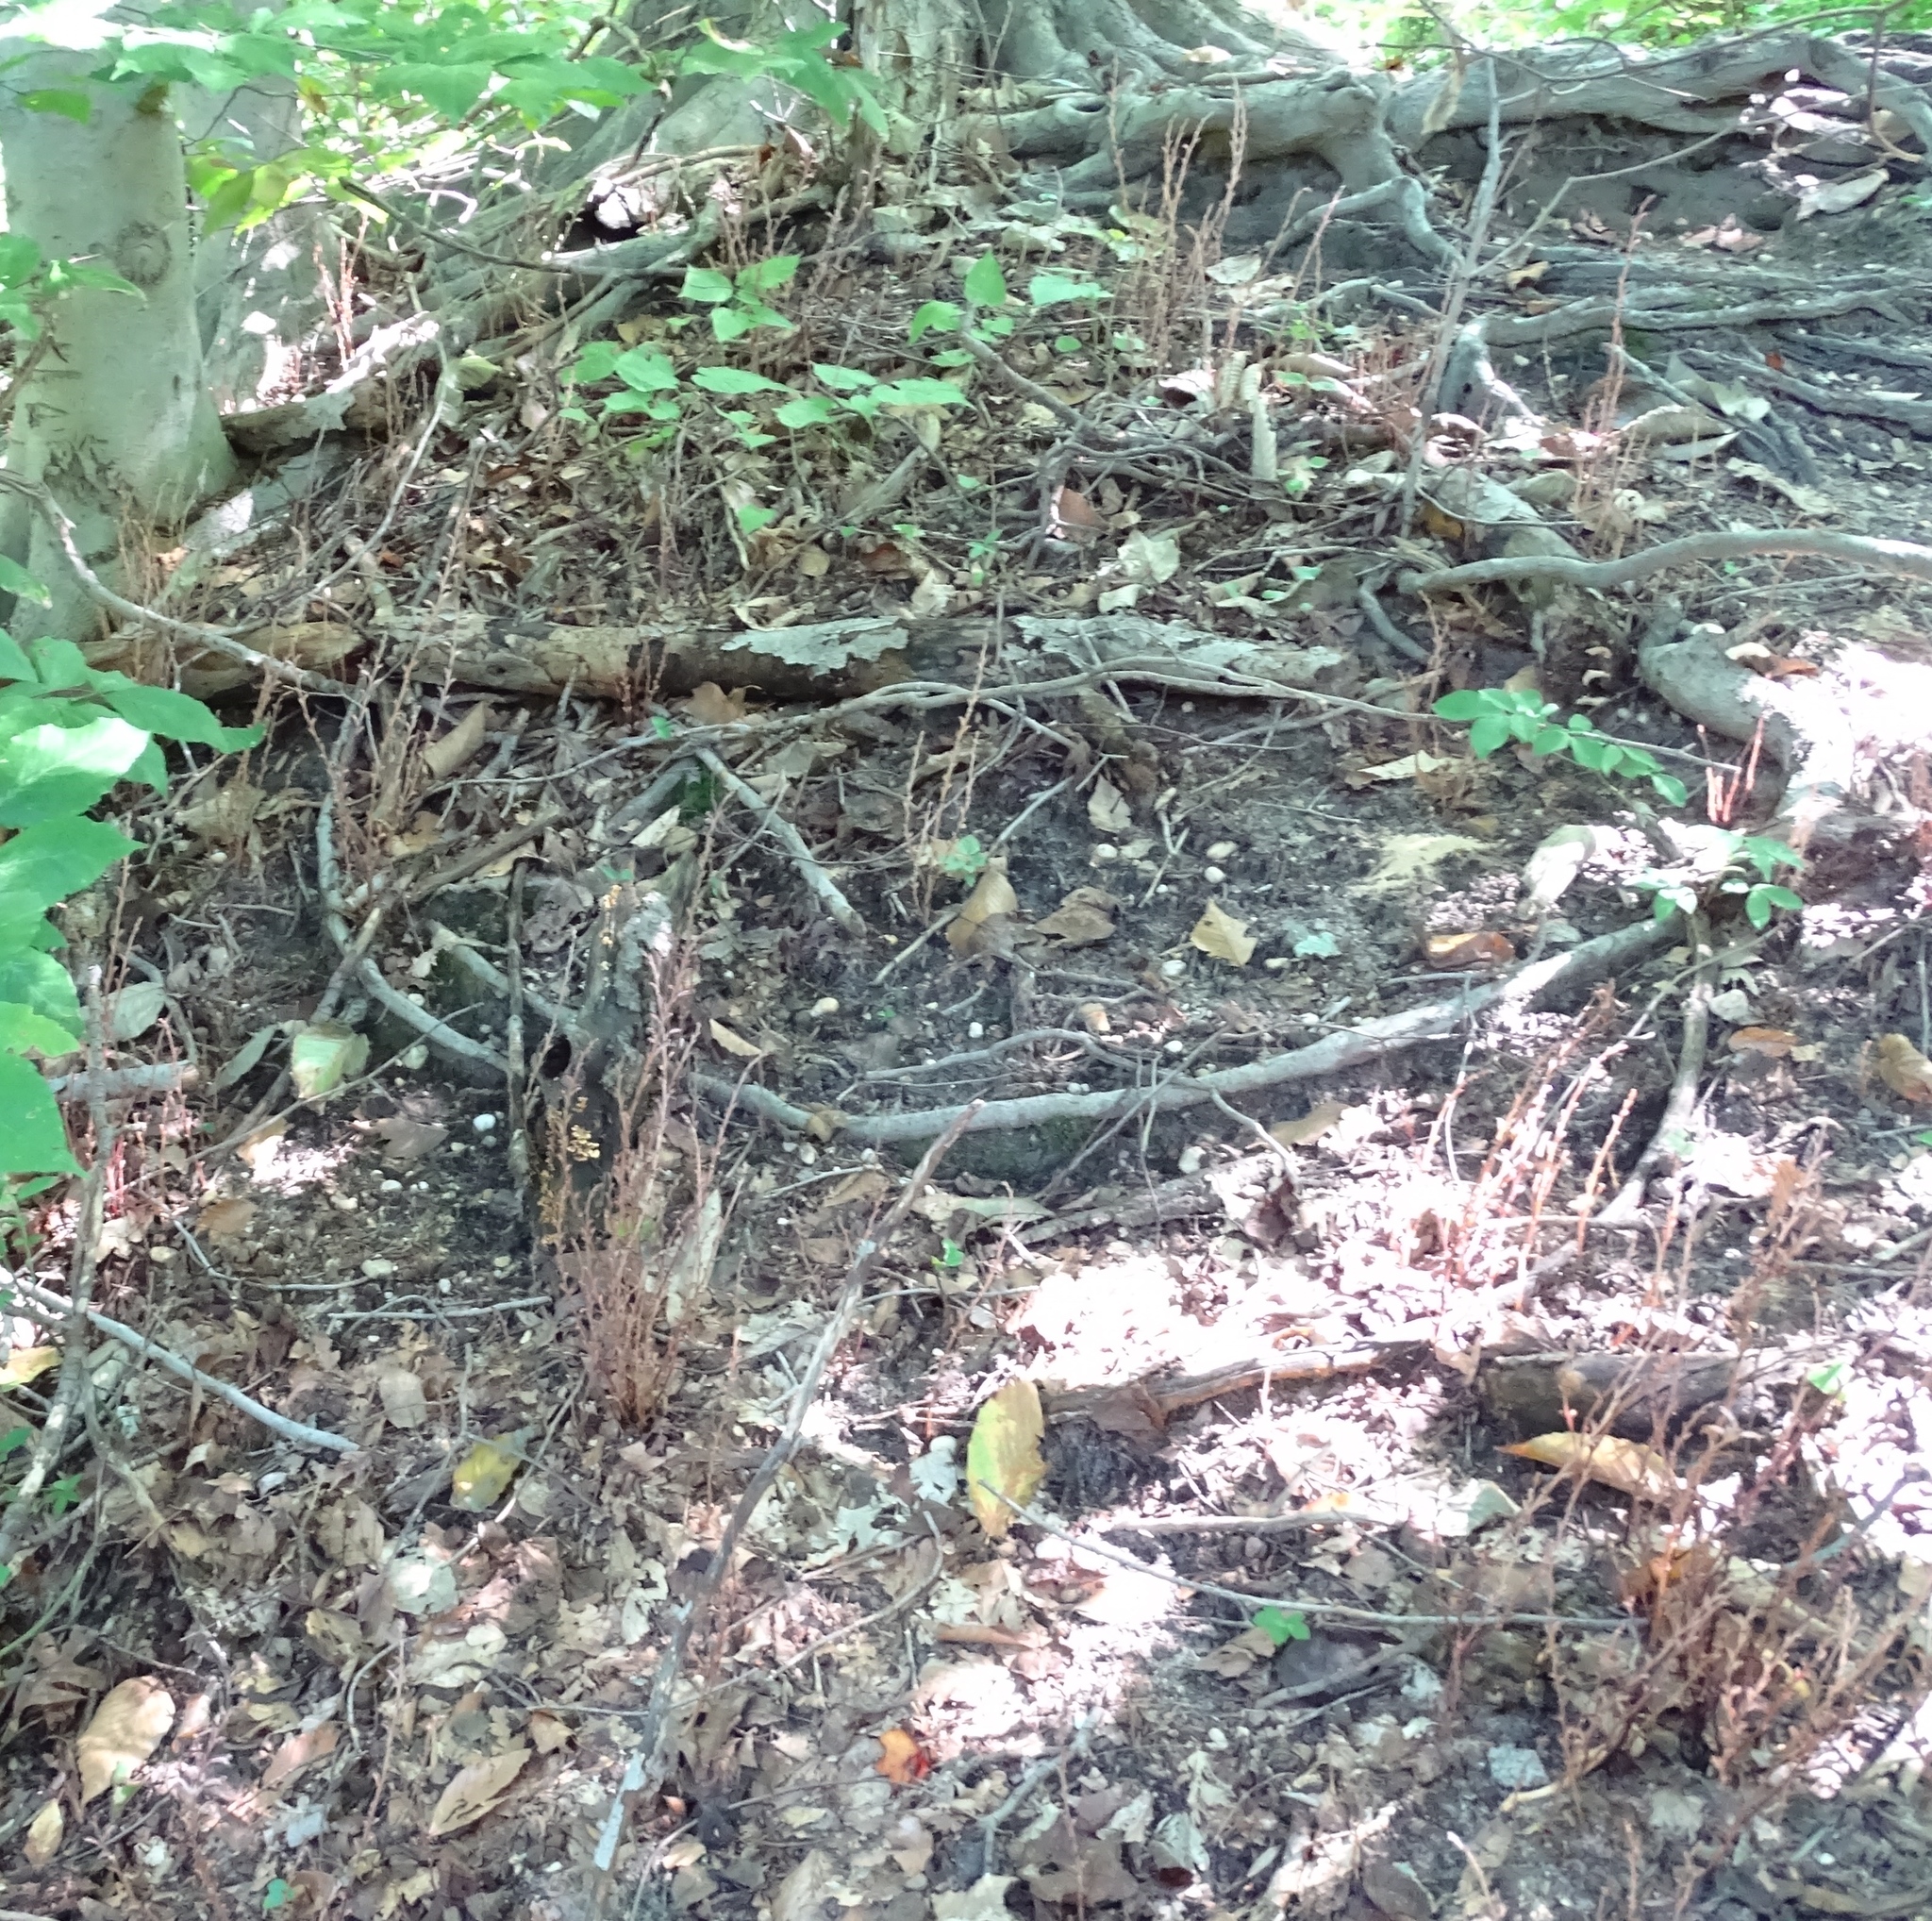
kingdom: Plantae
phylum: Tracheophyta
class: Magnoliopsida
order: Lamiales
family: Orobanchaceae
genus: Epifagus
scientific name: Epifagus virginiana
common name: Beechdrops
